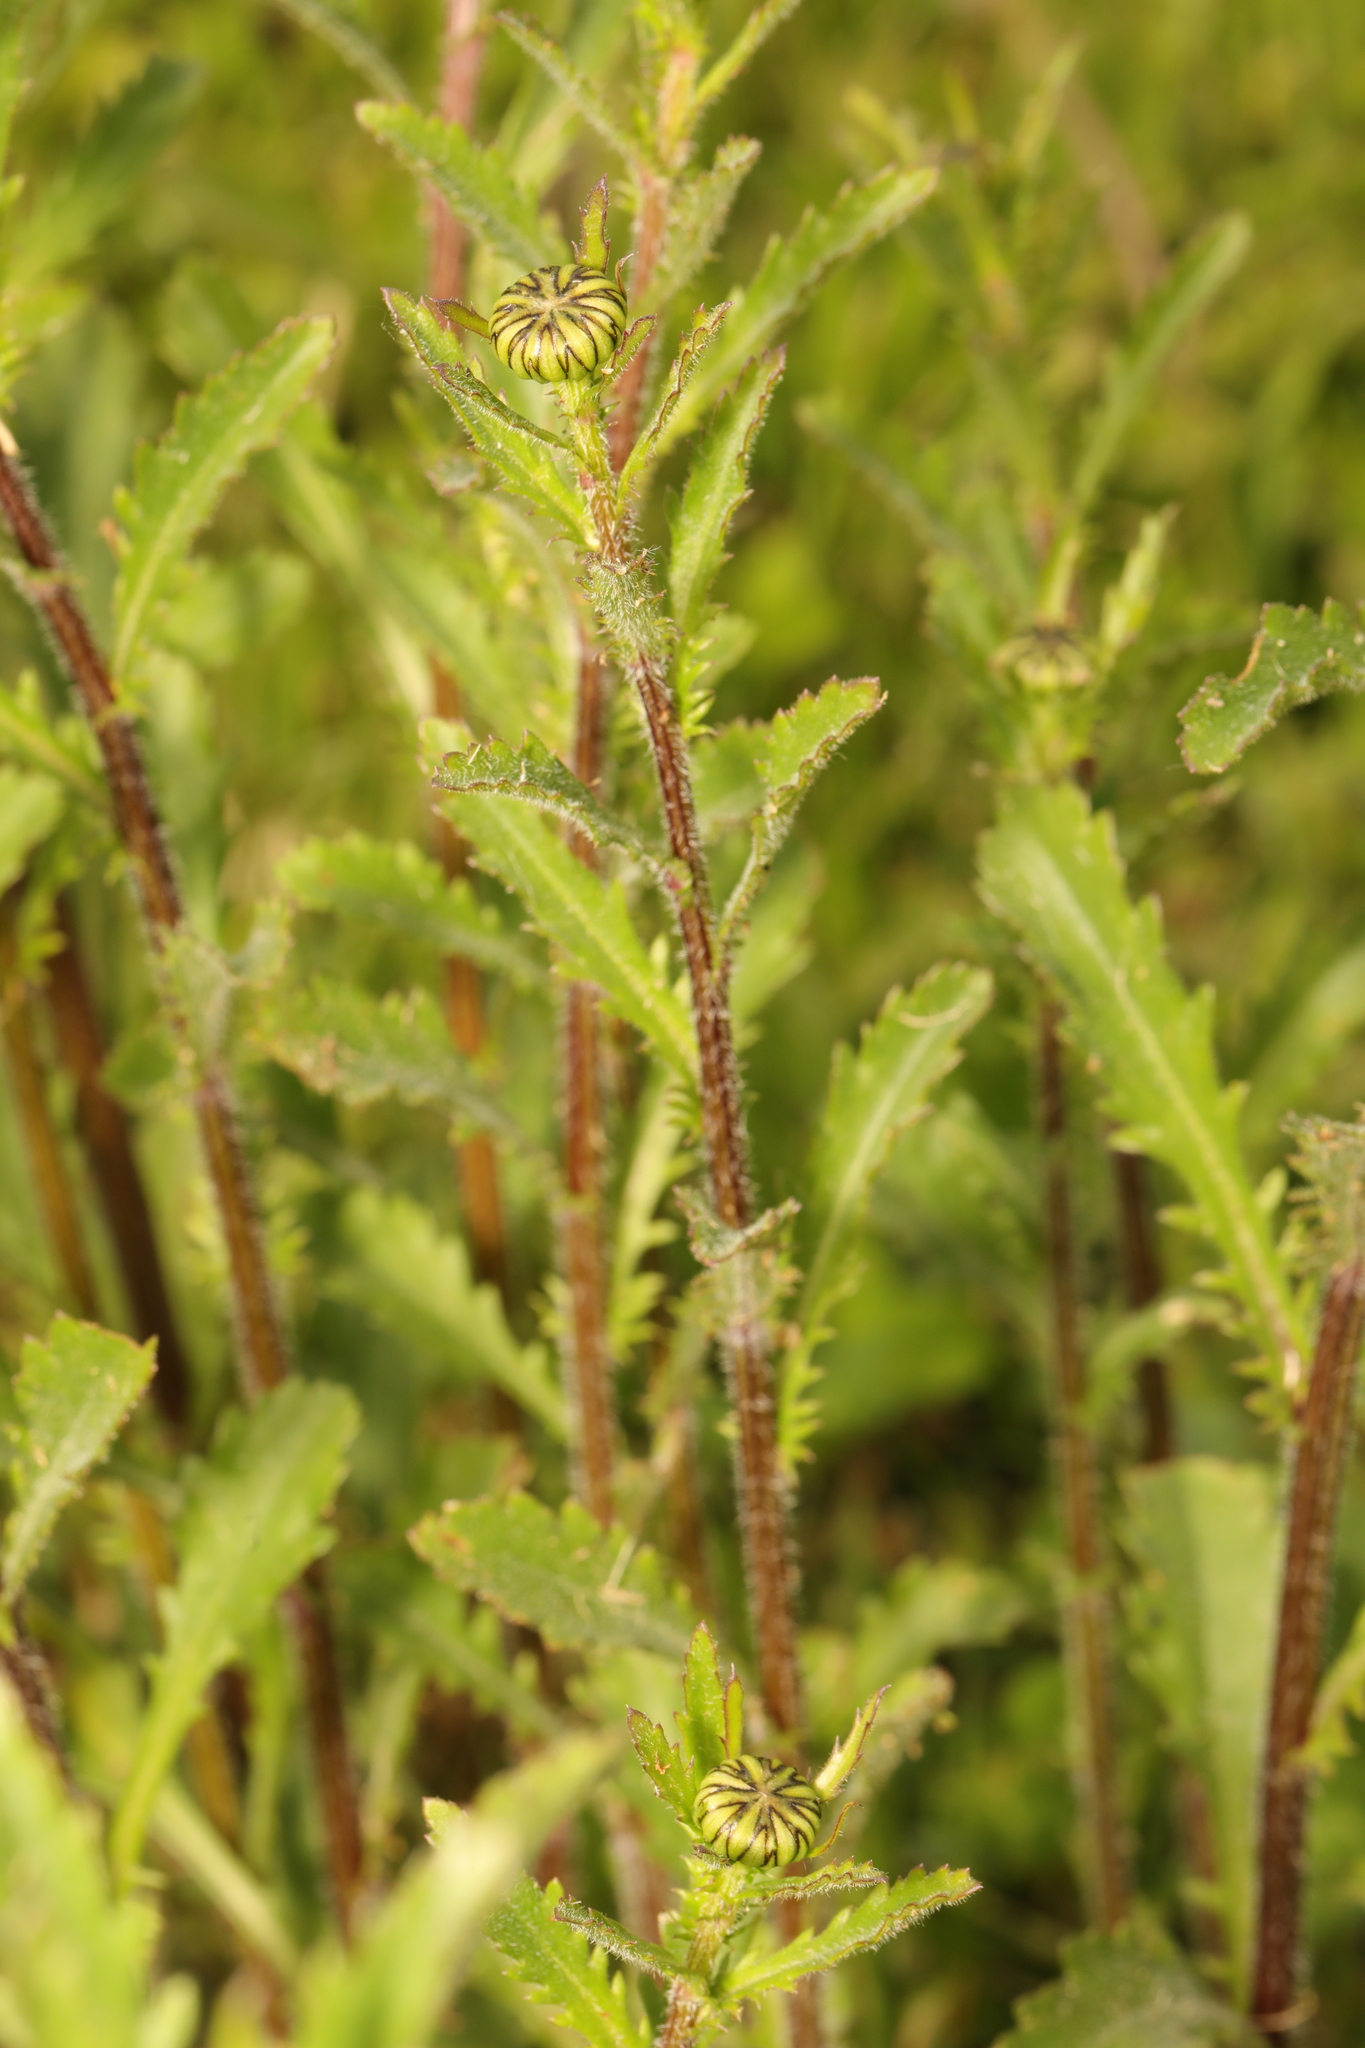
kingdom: Plantae
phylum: Tracheophyta
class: Magnoliopsida
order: Asterales
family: Asteraceae
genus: Leucanthemum
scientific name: Leucanthemum vulgare
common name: Oxeye daisy
